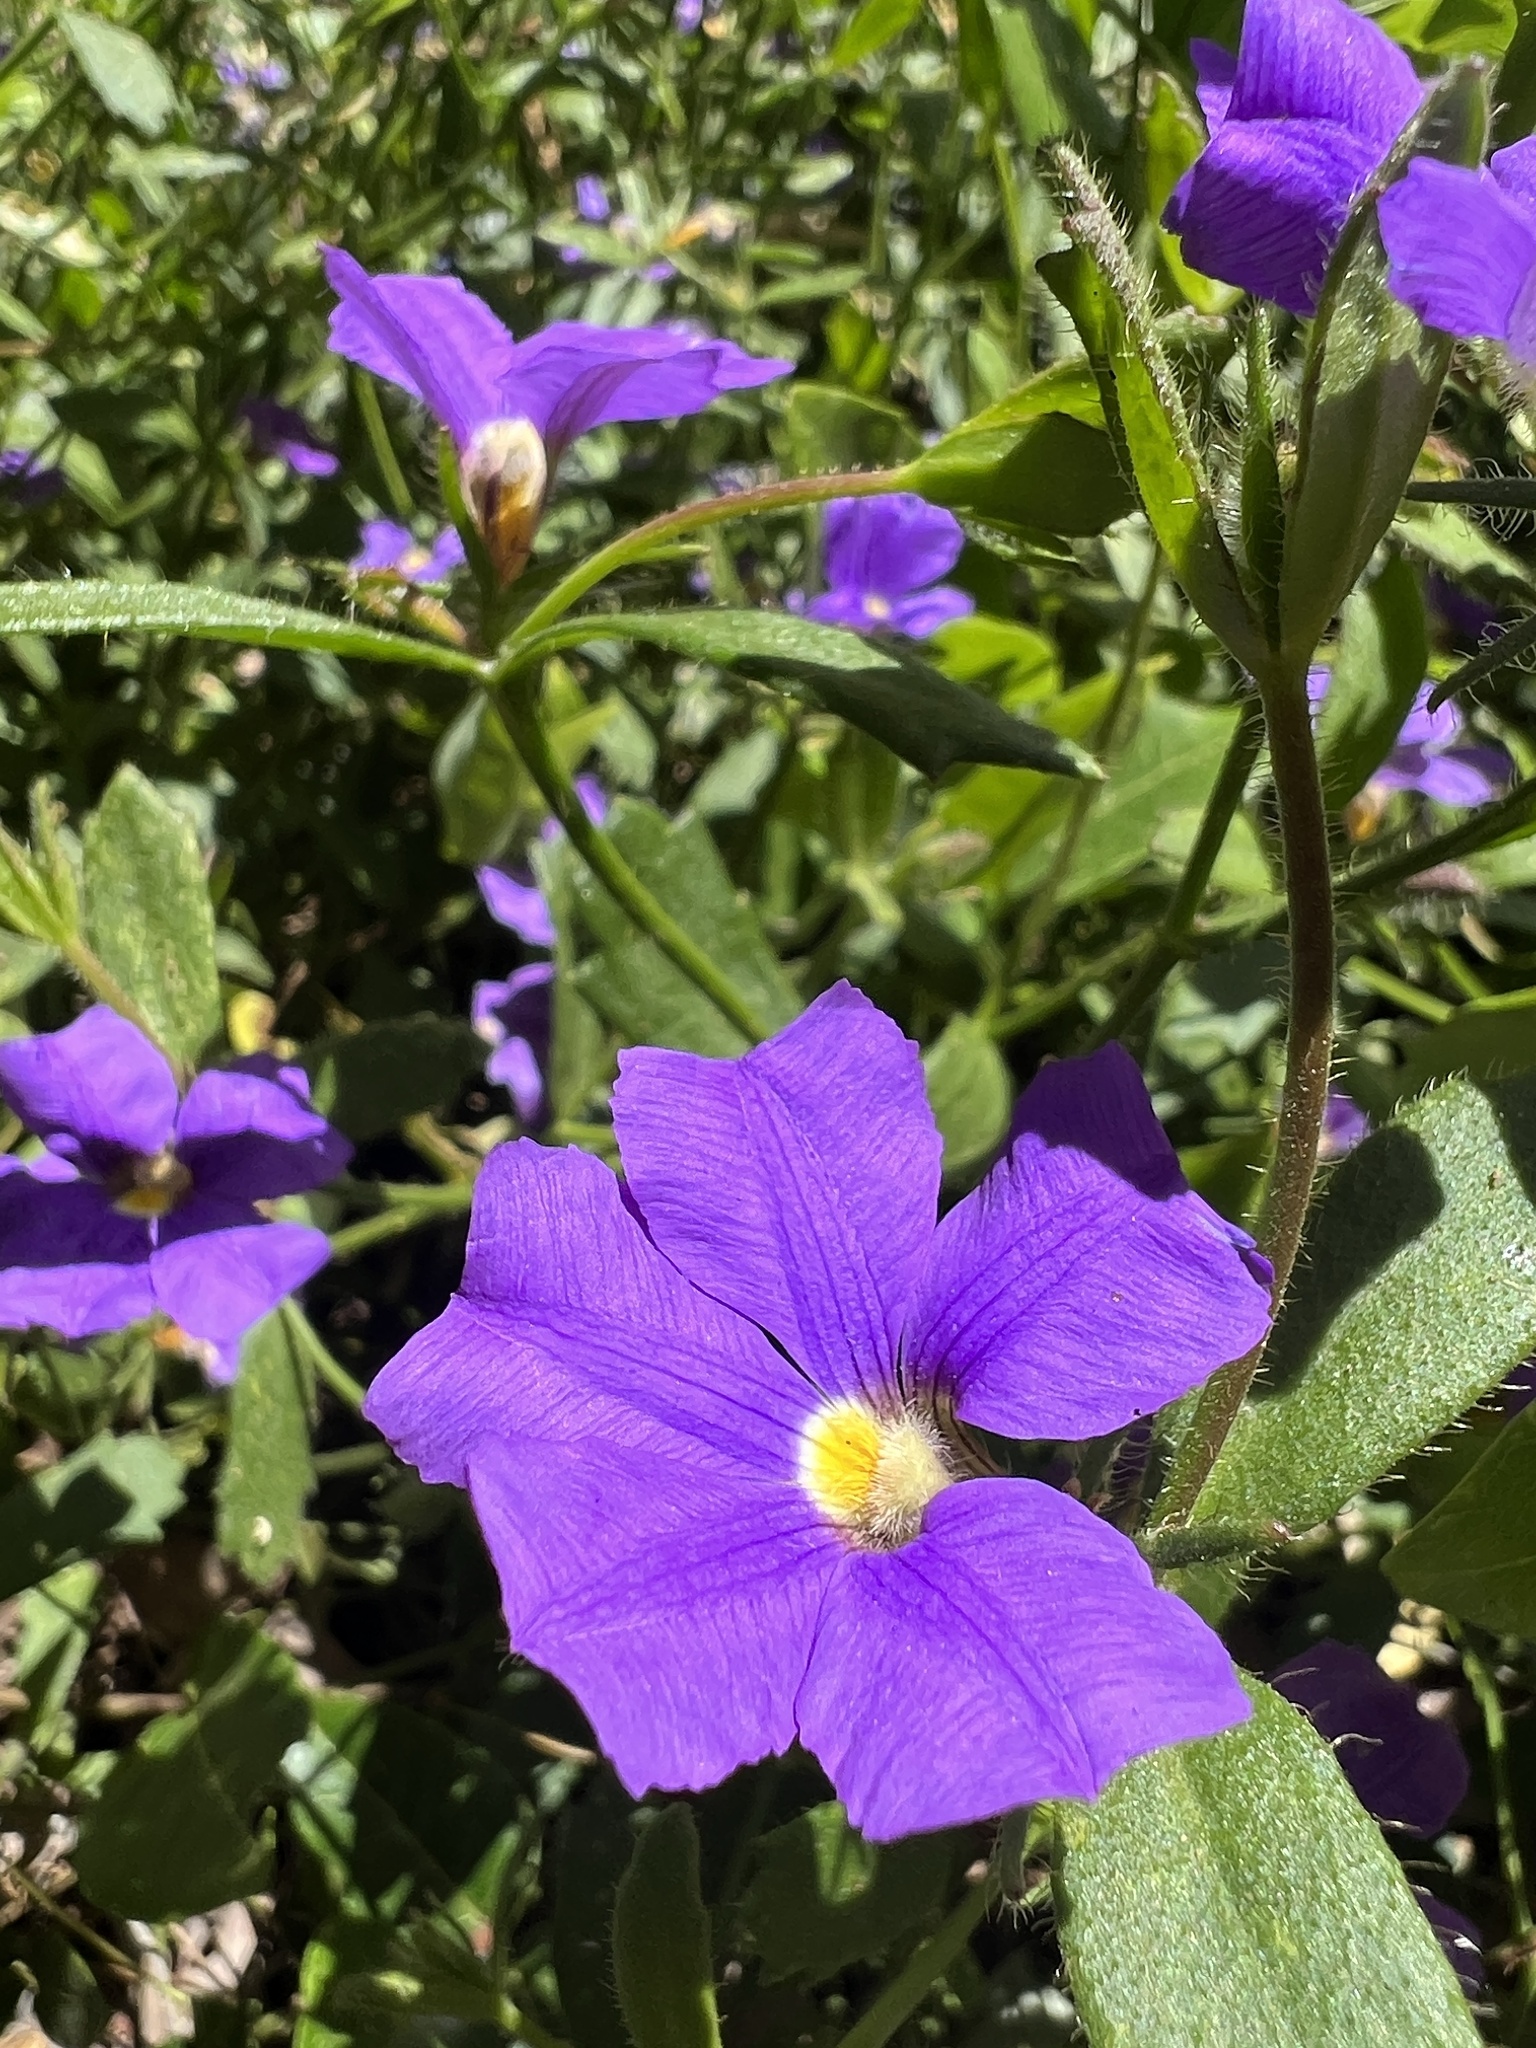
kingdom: Plantae
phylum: Tracheophyta
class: Magnoliopsida
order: Asterales
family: Goodeniaceae
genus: Scaevola
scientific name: Scaevola calliptera
